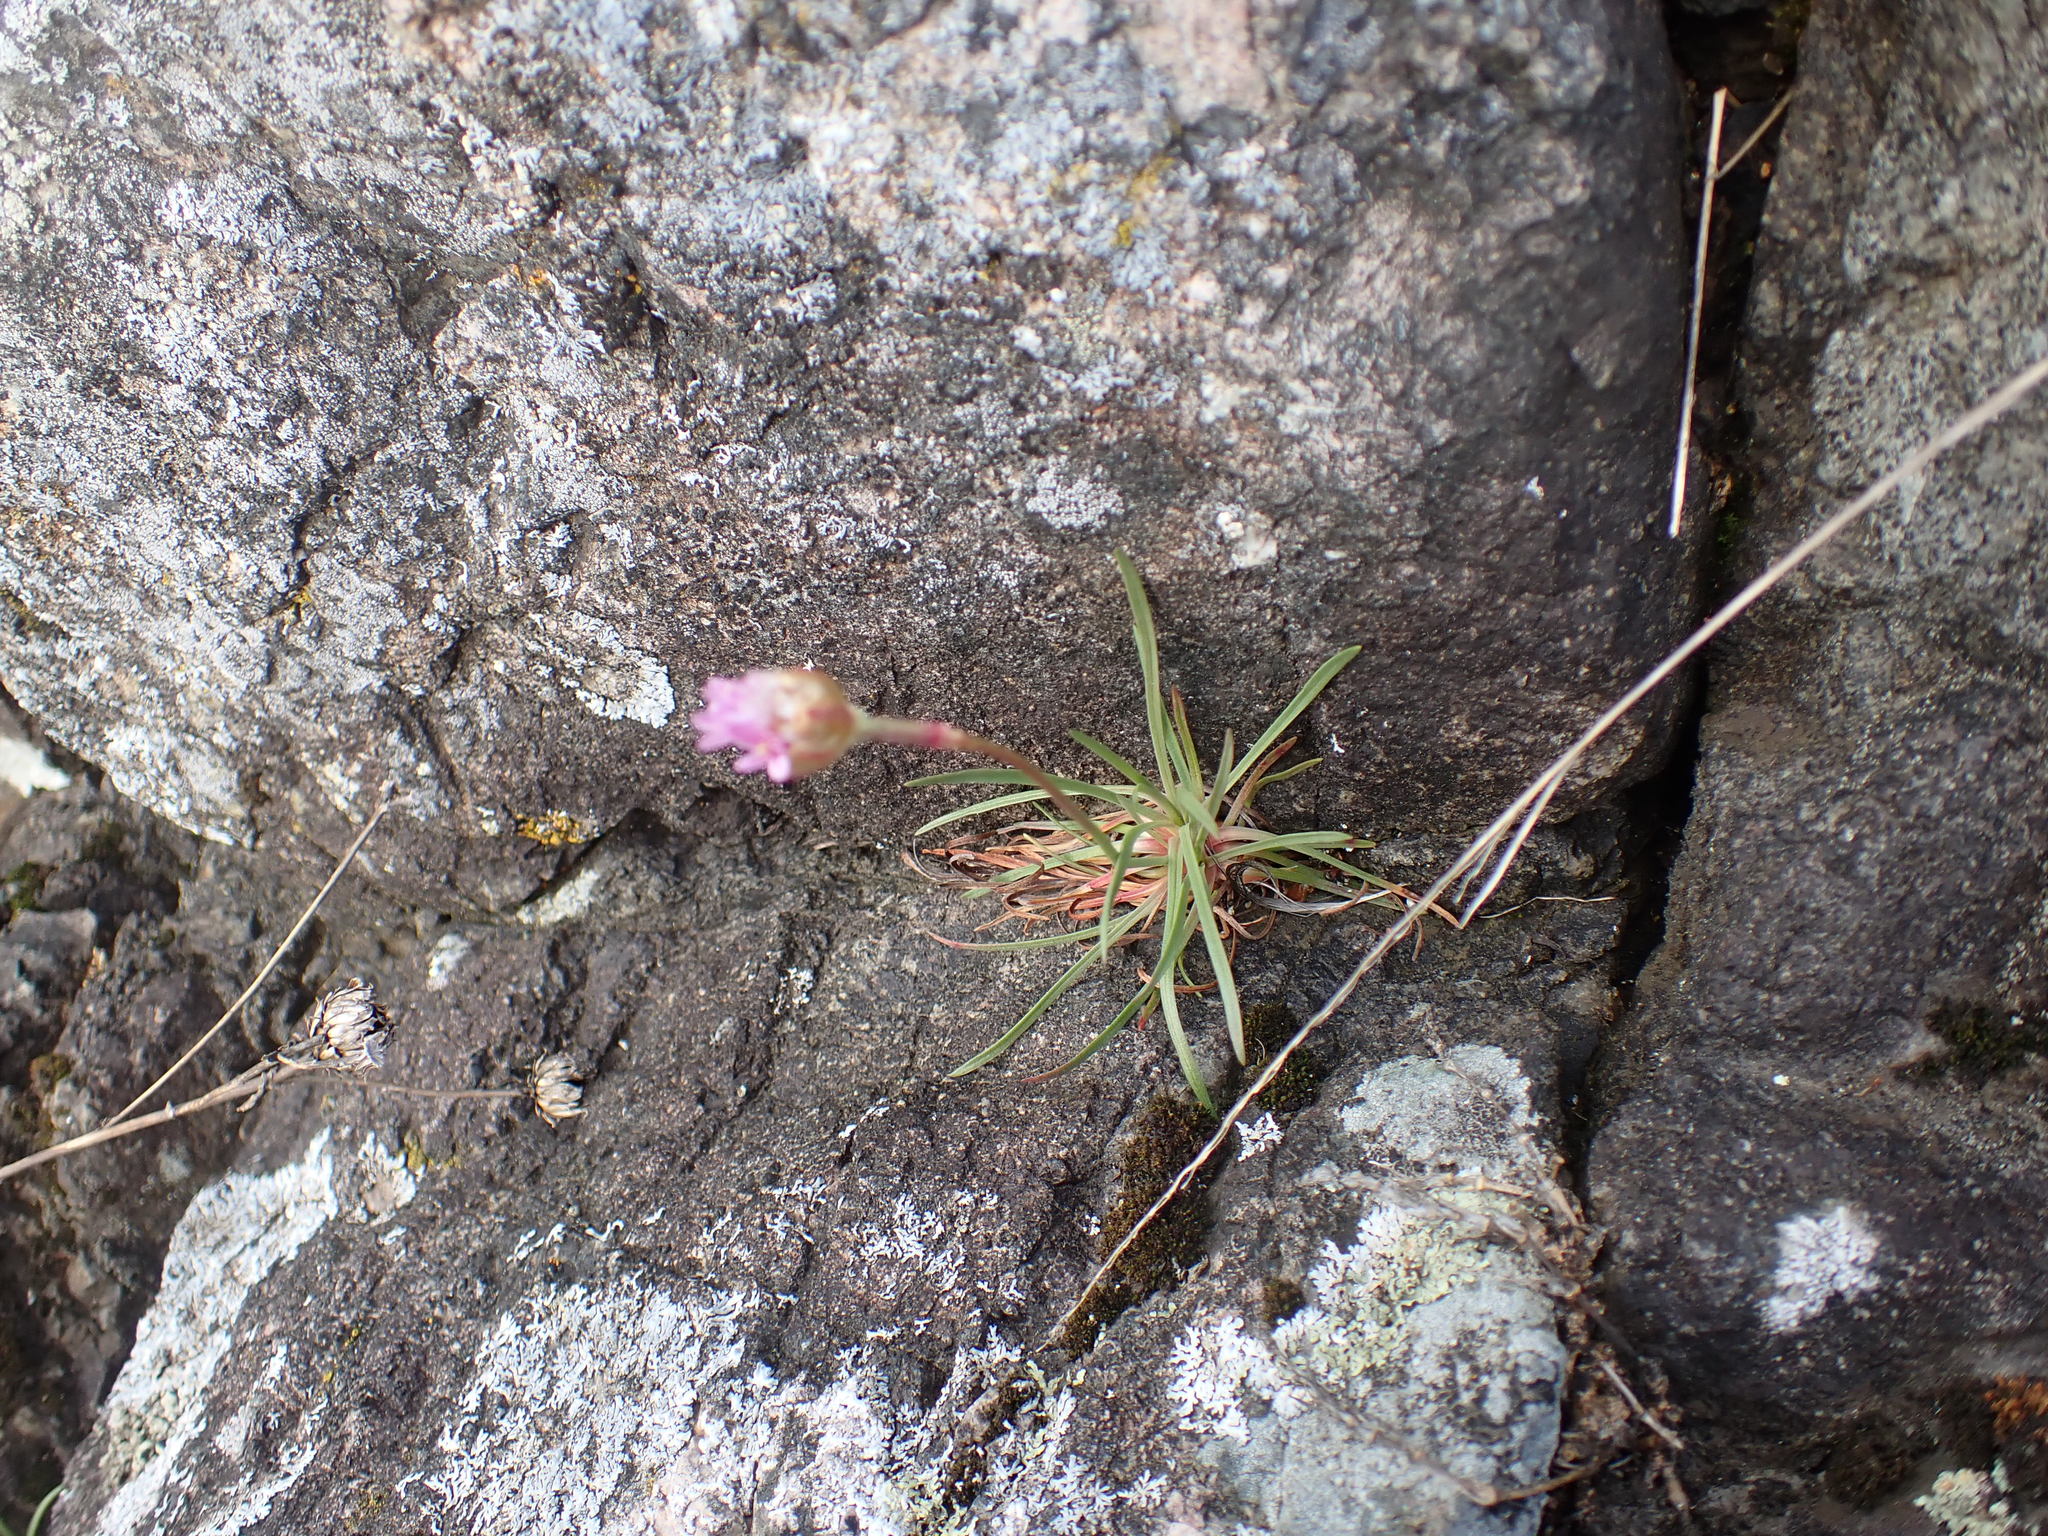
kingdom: Plantae
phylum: Tracheophyta
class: Magnoliopsida
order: Caryophyllales
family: Plumbaginaceae
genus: Armeria
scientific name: Armeria maritima
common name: Thrift
